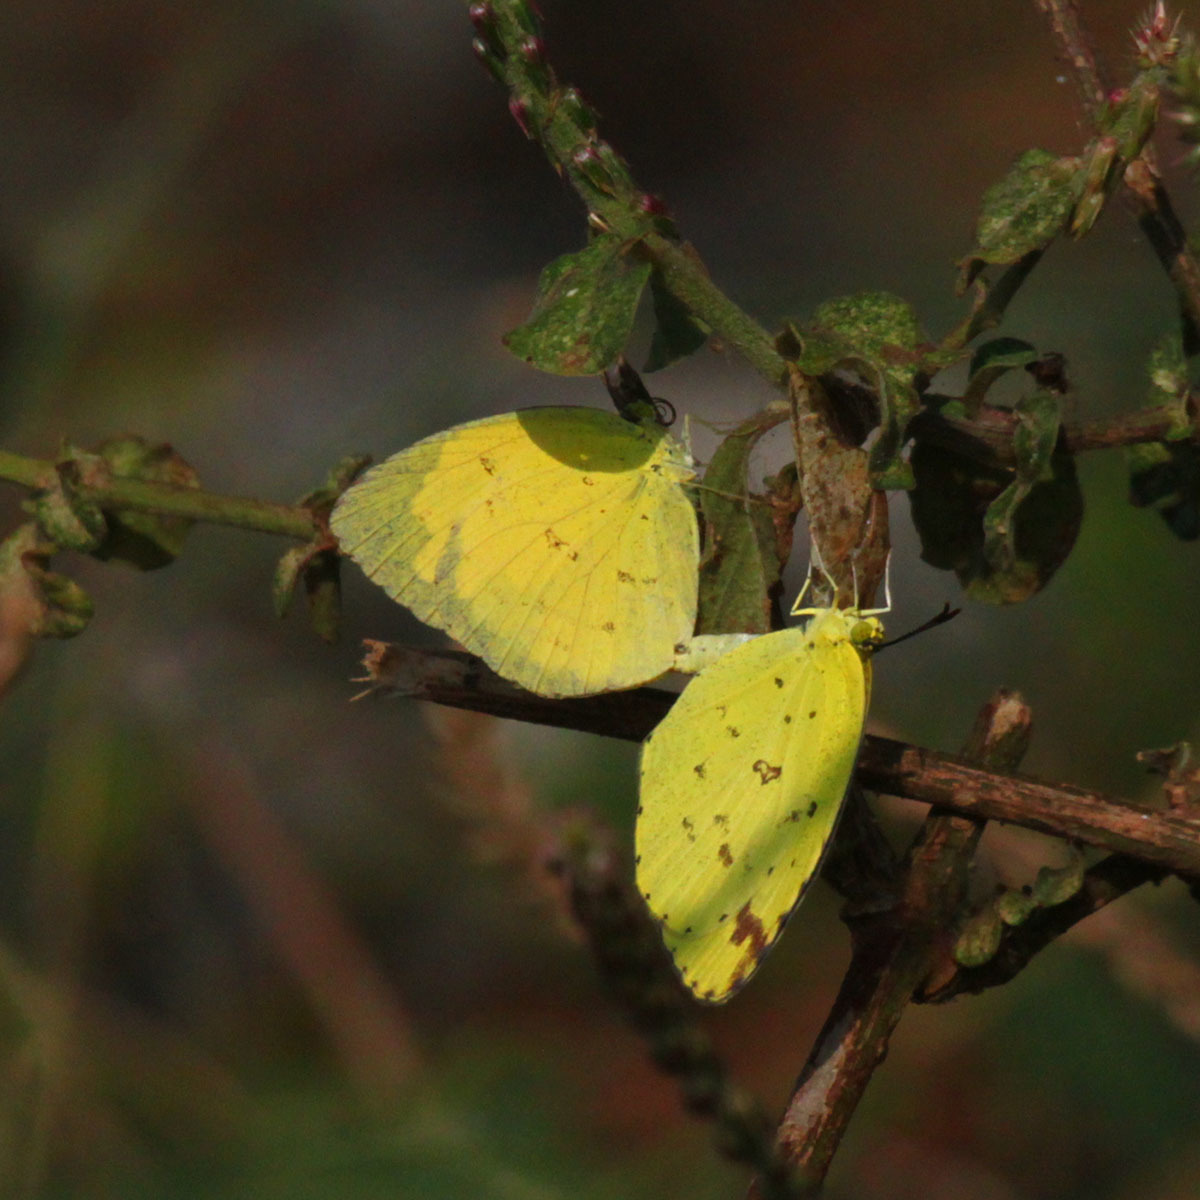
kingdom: Animalia
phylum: Arthropoda
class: Insecta
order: Lepidoptera
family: Pieridae
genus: Eurema
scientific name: Eurema hecabe
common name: Pale grass yellow
